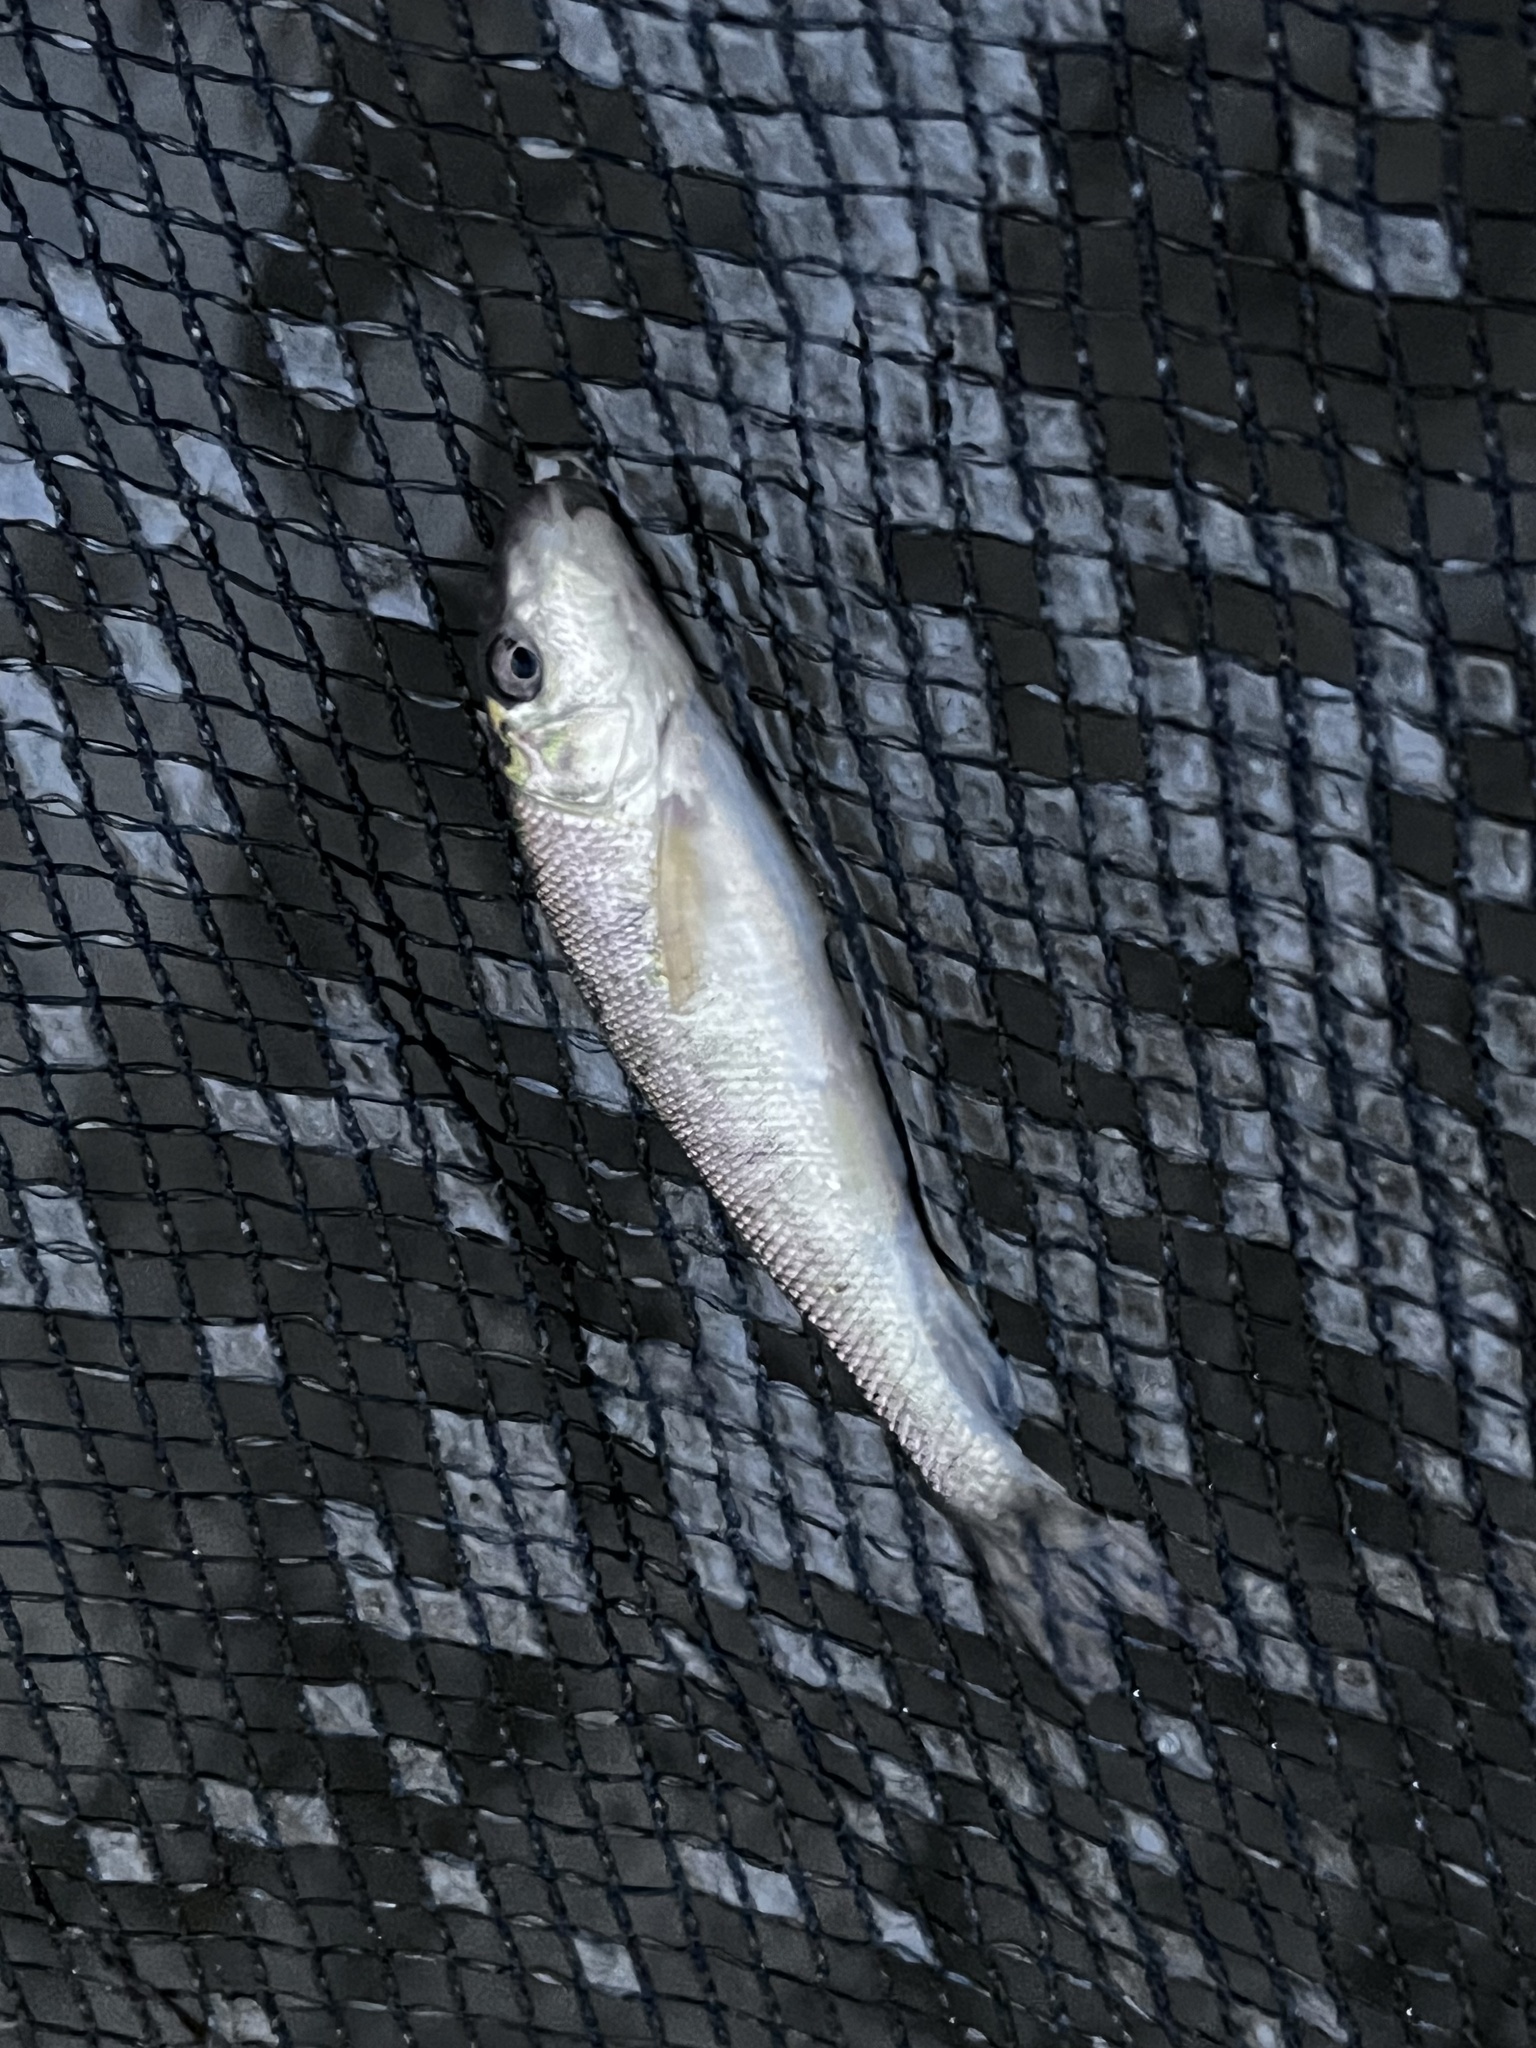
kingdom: Animalia
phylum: Chordata
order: Cypriniformes
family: Catostomidae
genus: Catostomus
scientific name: Catostomus commersonii
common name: White sucker
